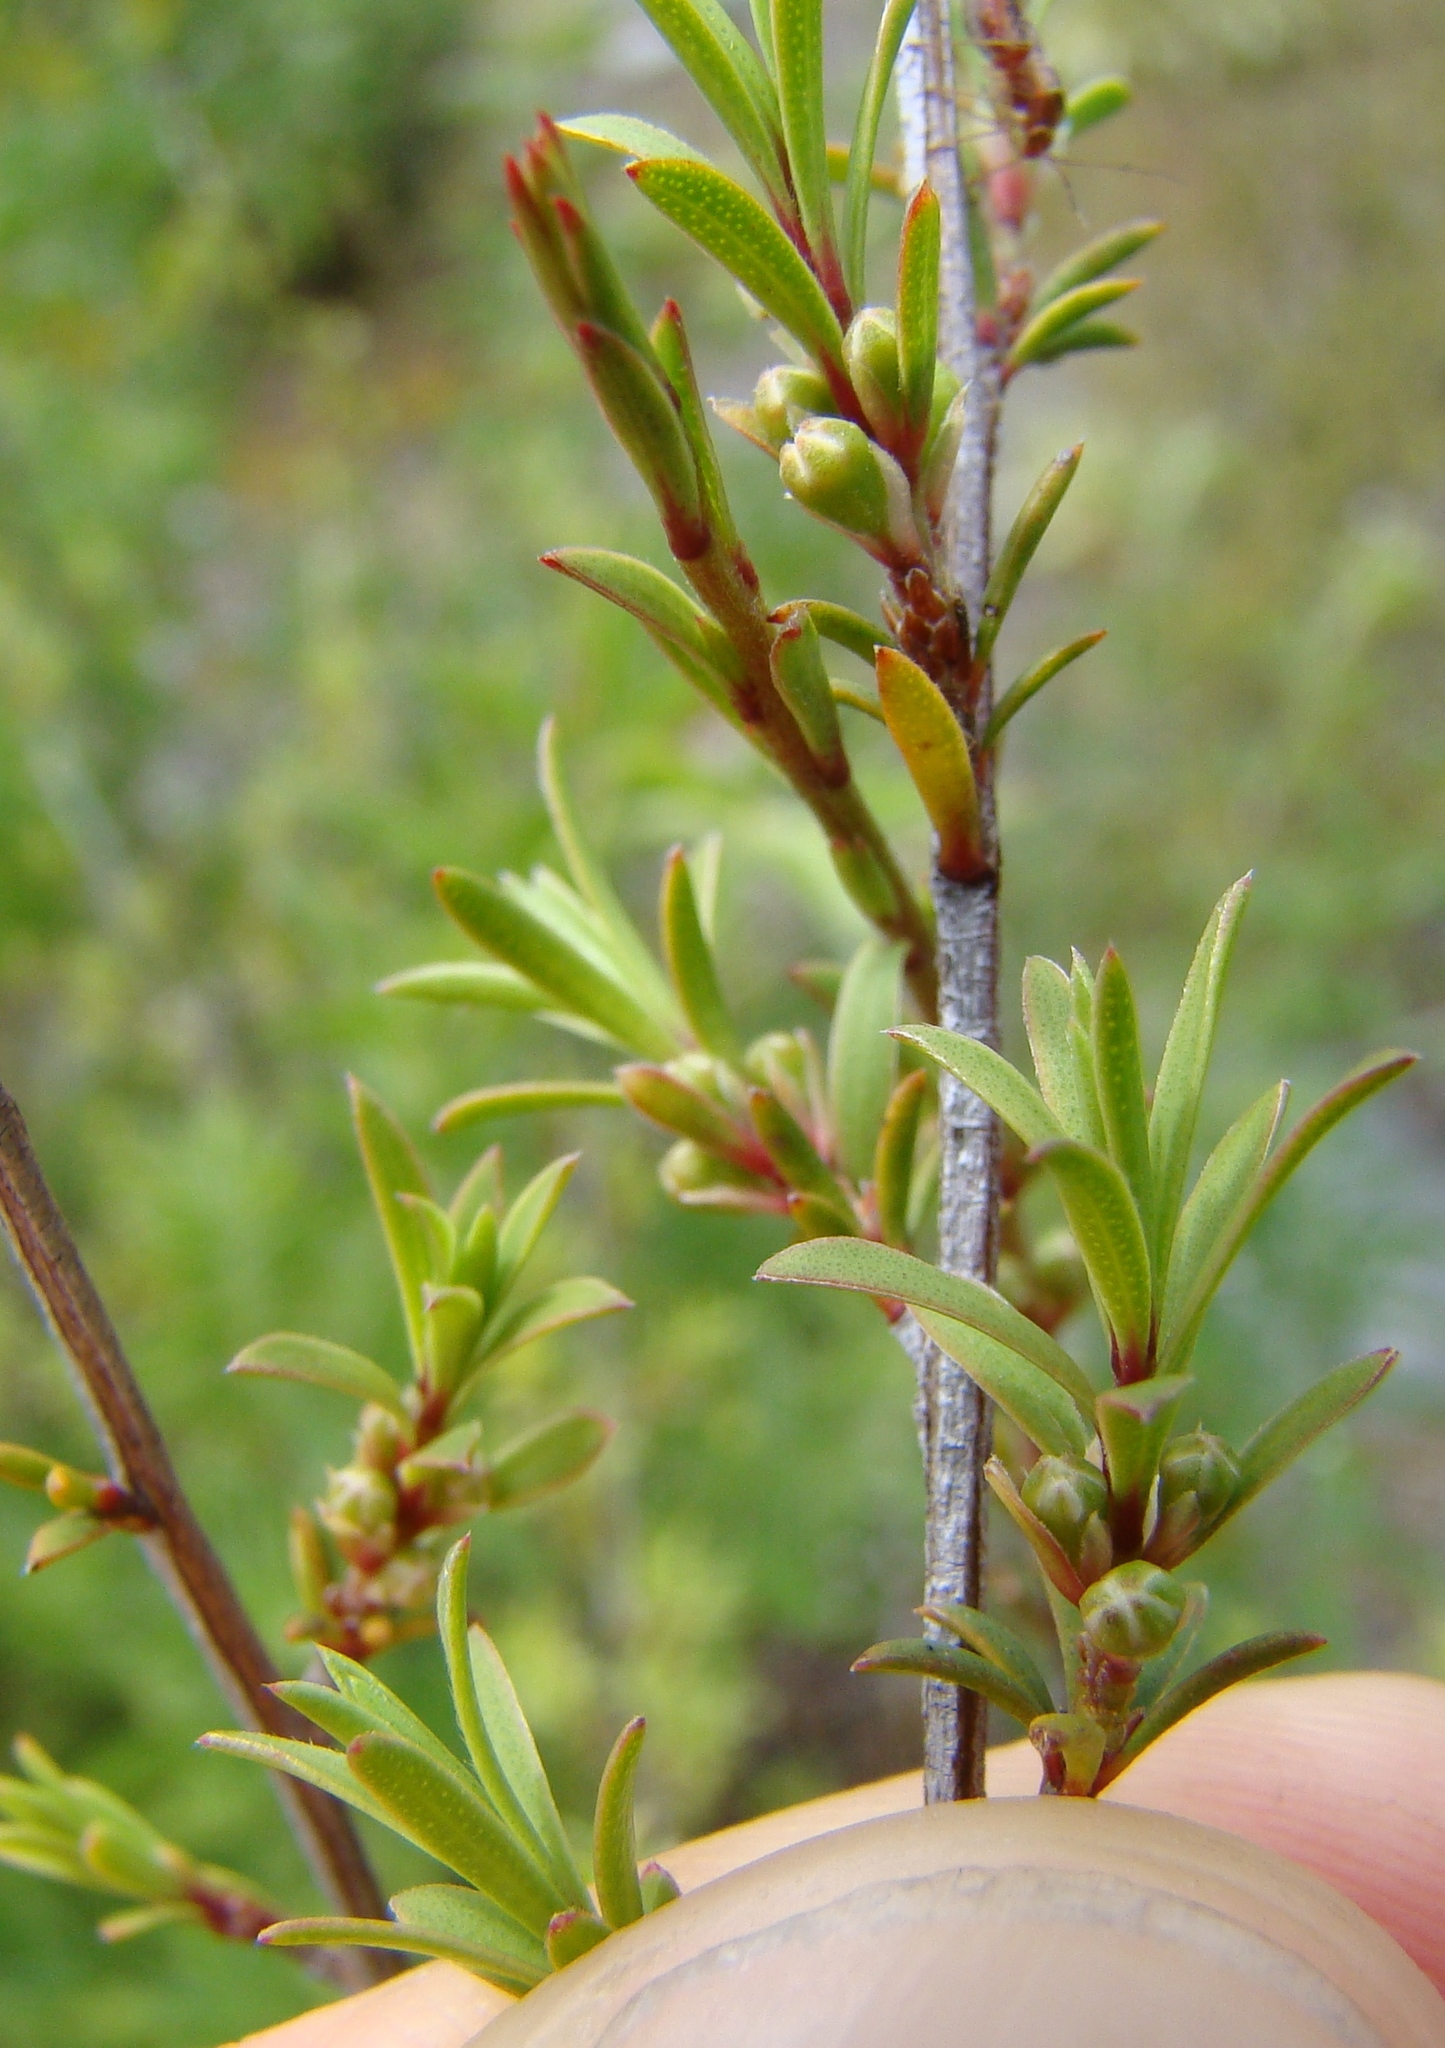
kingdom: Plantae
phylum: Tracheophyta
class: Magnoliopsida
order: Myrtales
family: Myrtaceae
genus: Kunzea
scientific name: Kunzea robusta
